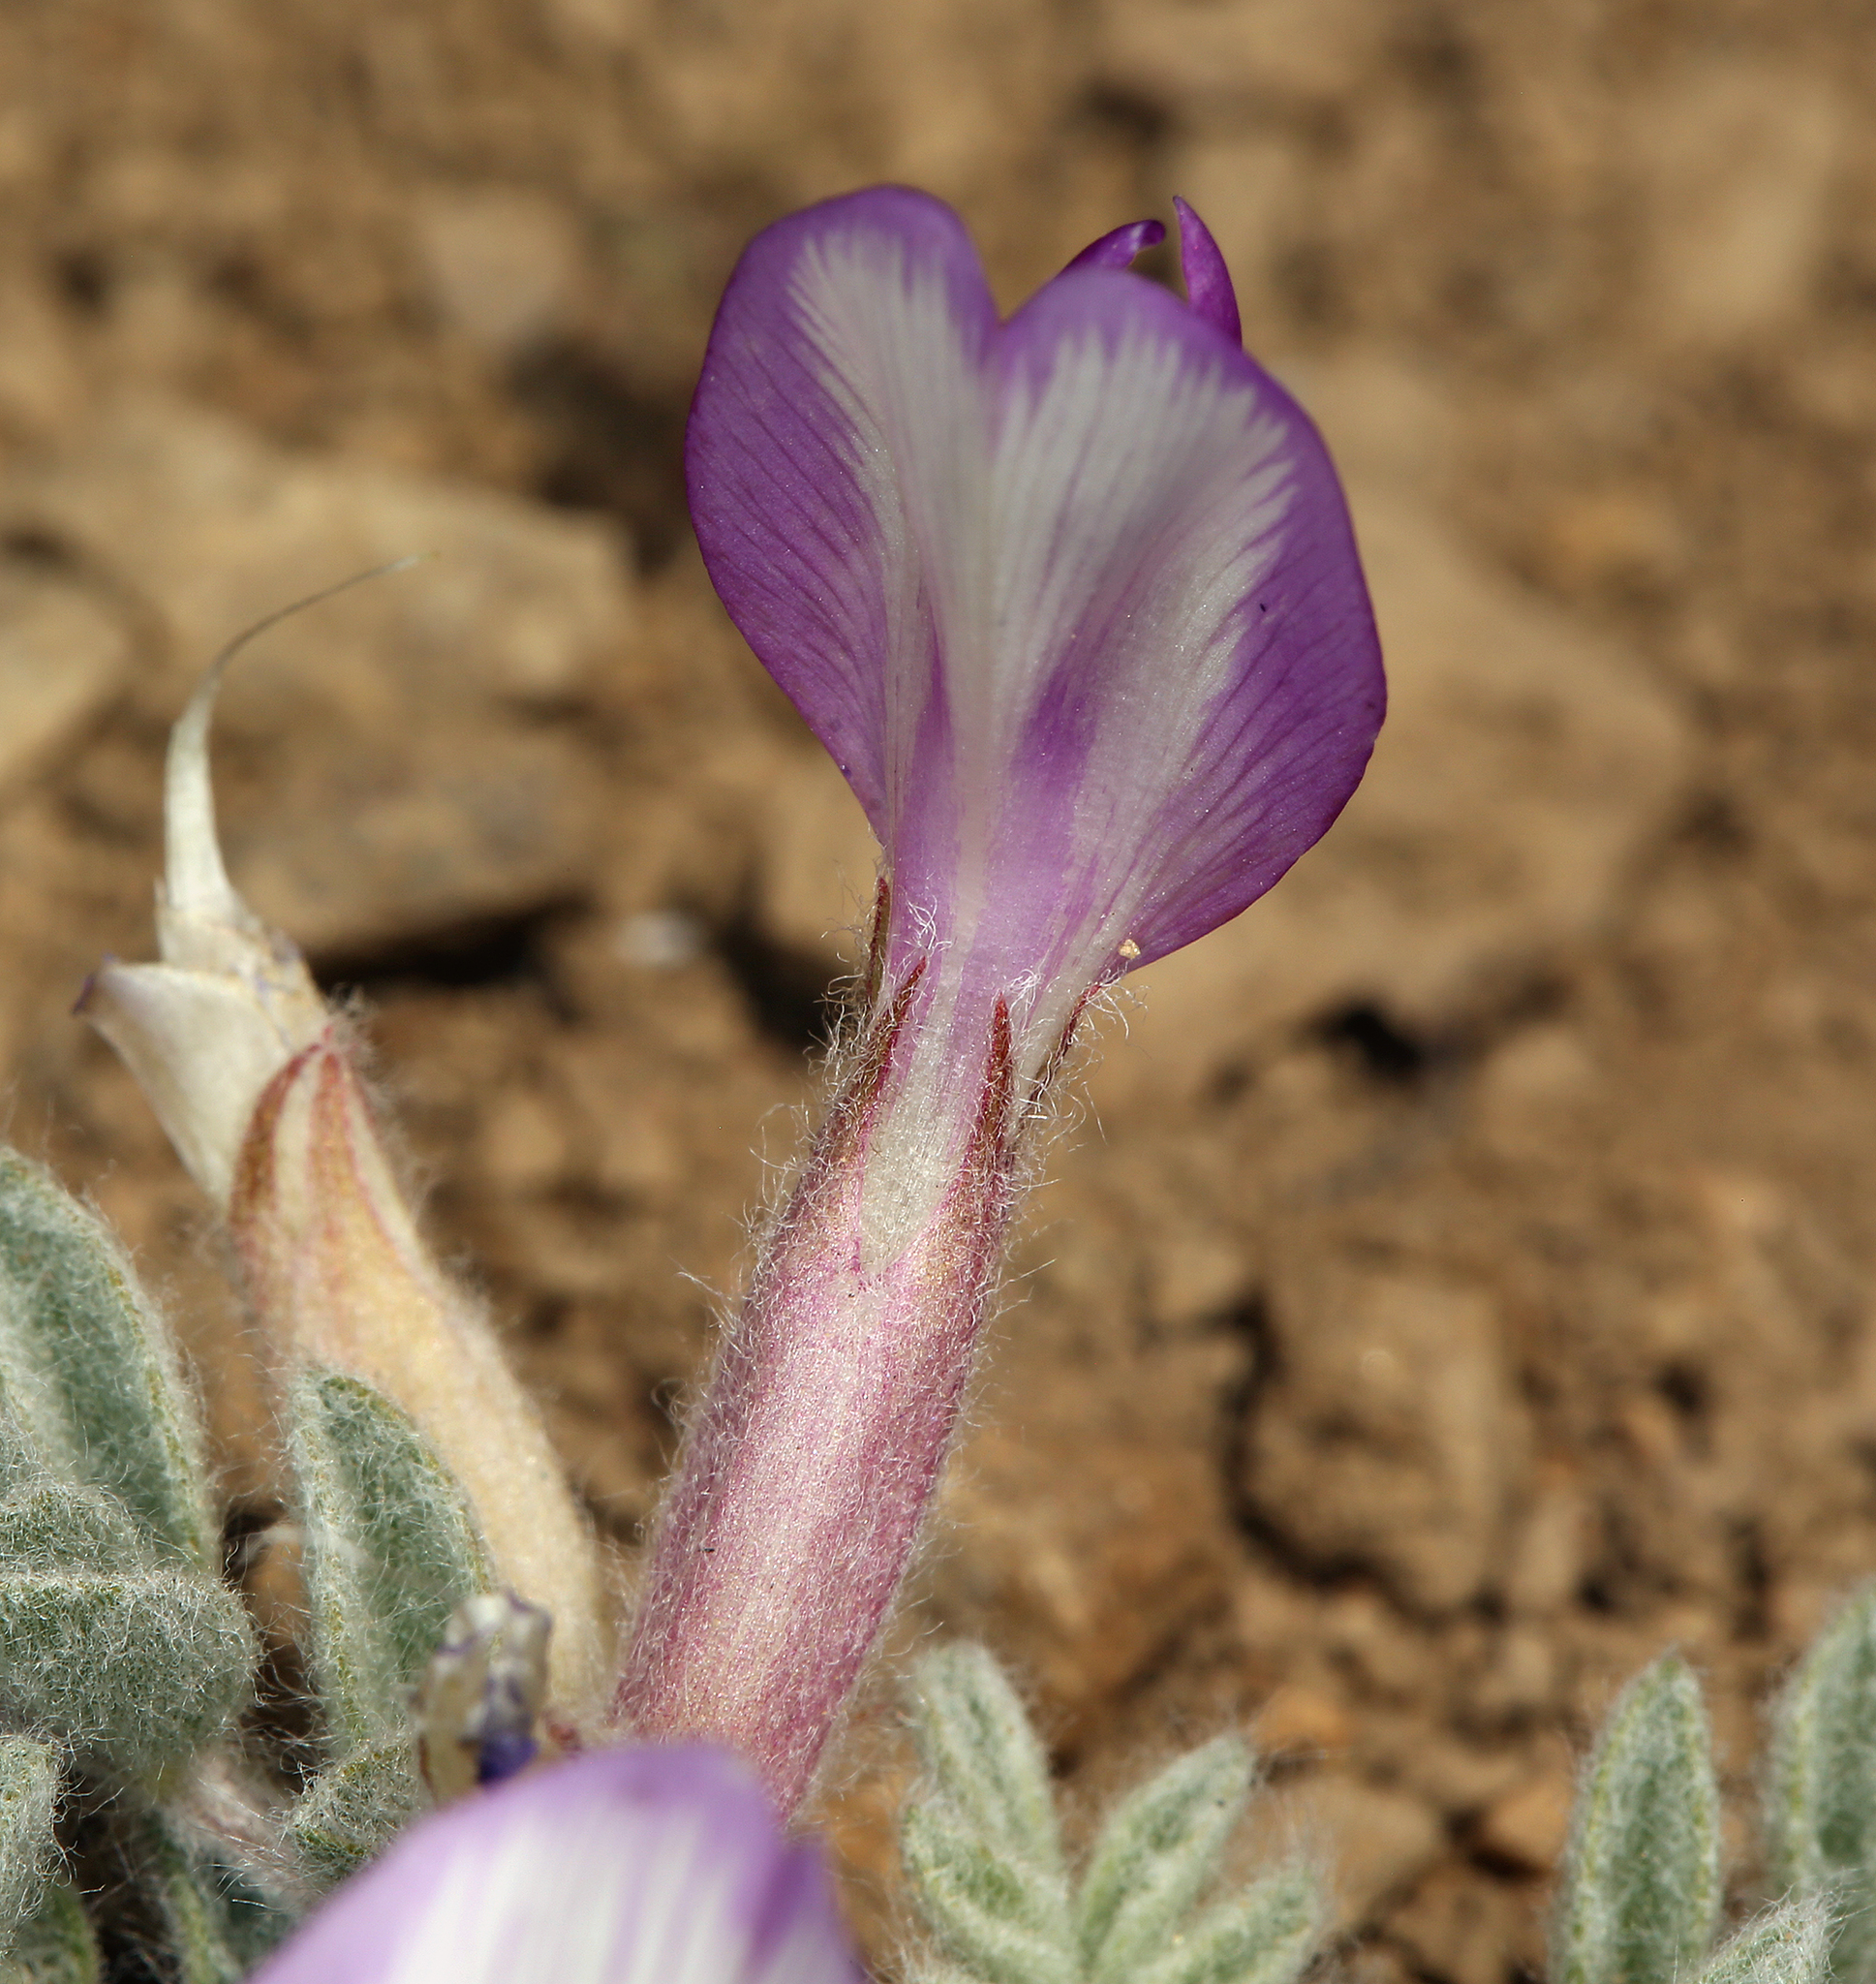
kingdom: Plantae
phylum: Tracheophyta
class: Magnoliopsida
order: Fabales
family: Fabaceae
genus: Astragalus
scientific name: Astragalus purshii
